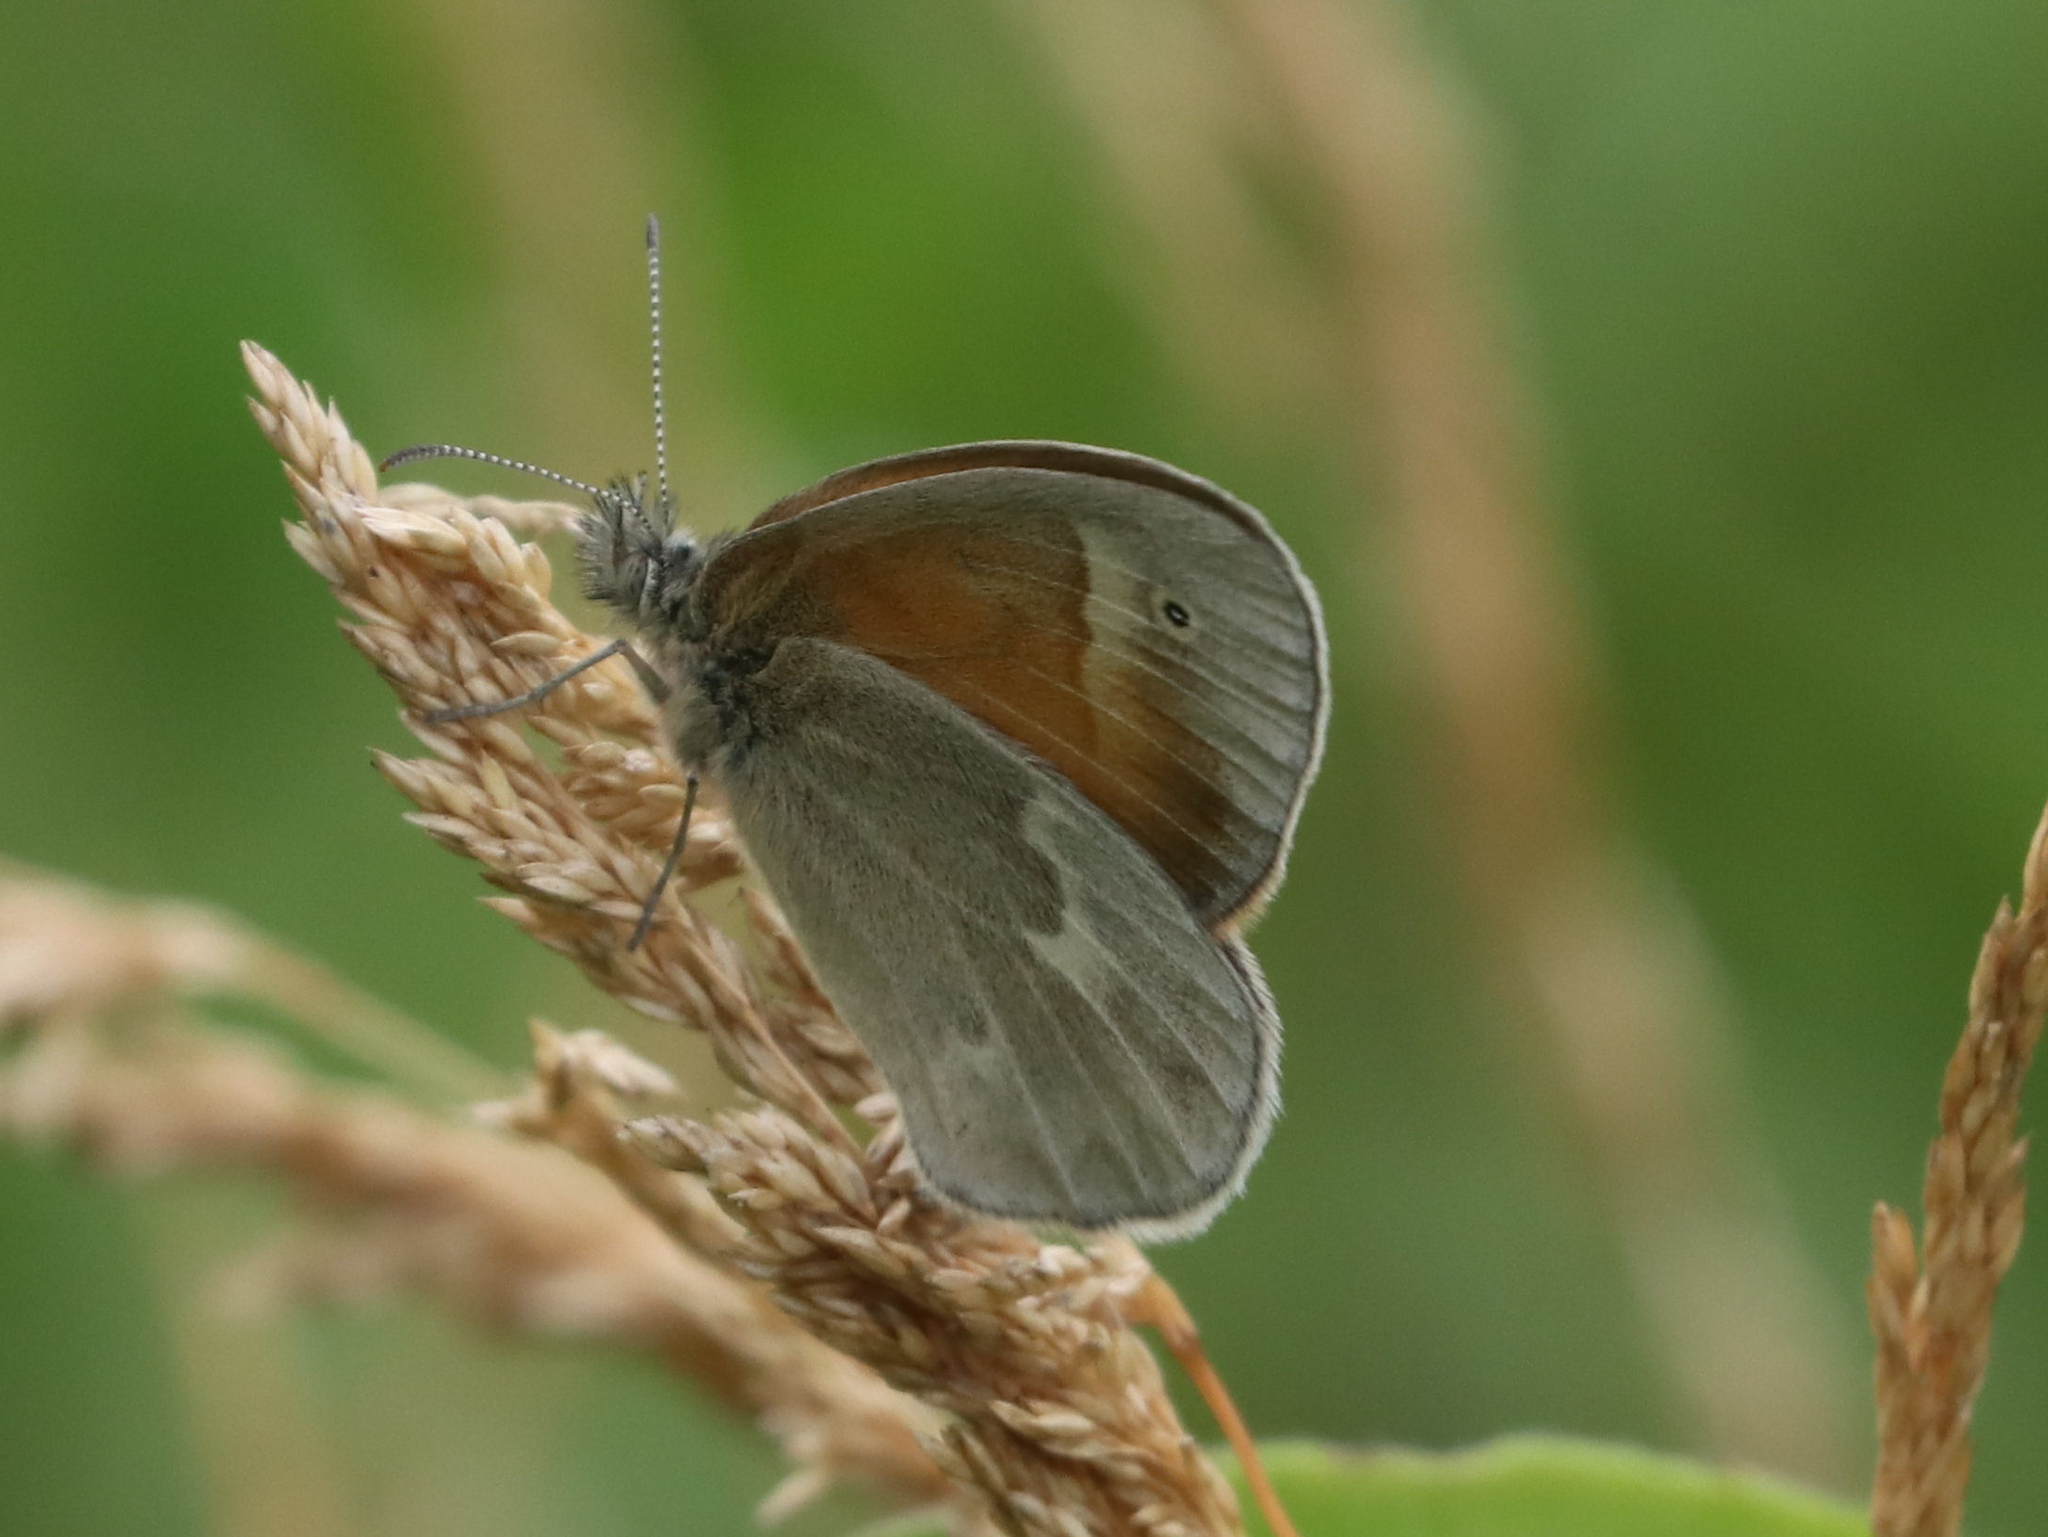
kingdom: Animalia
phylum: Arthropoda
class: Insecta
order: Lepidoptera
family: Nymphalidae
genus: Coenonympha
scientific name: Coenonympha california
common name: Common ringlet
